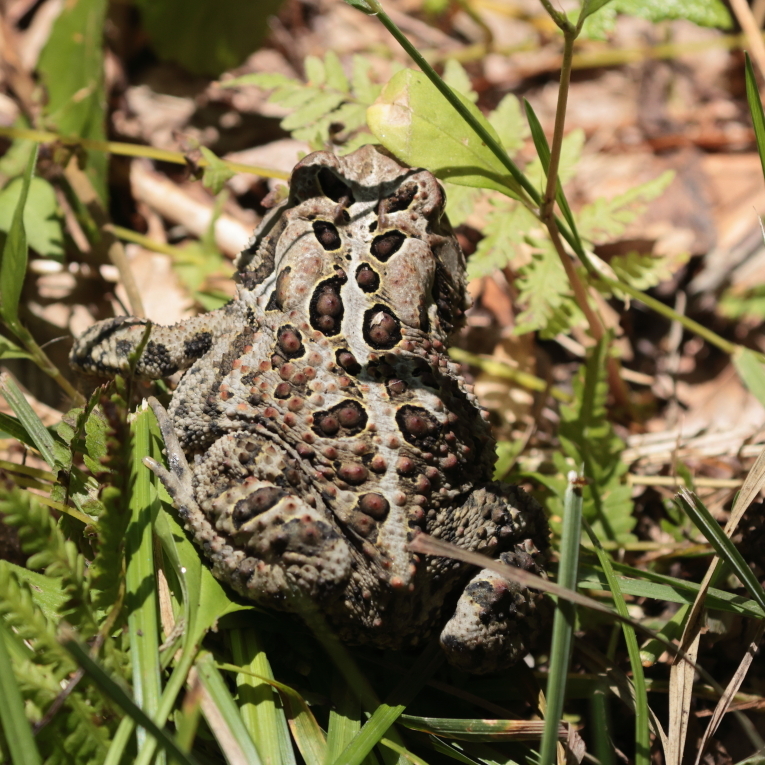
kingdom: Animalia
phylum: Chordata
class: Amphibia
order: Anura
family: Bufonidae
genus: Anaxyrus
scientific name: Anaxyrus americanus
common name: American toad
